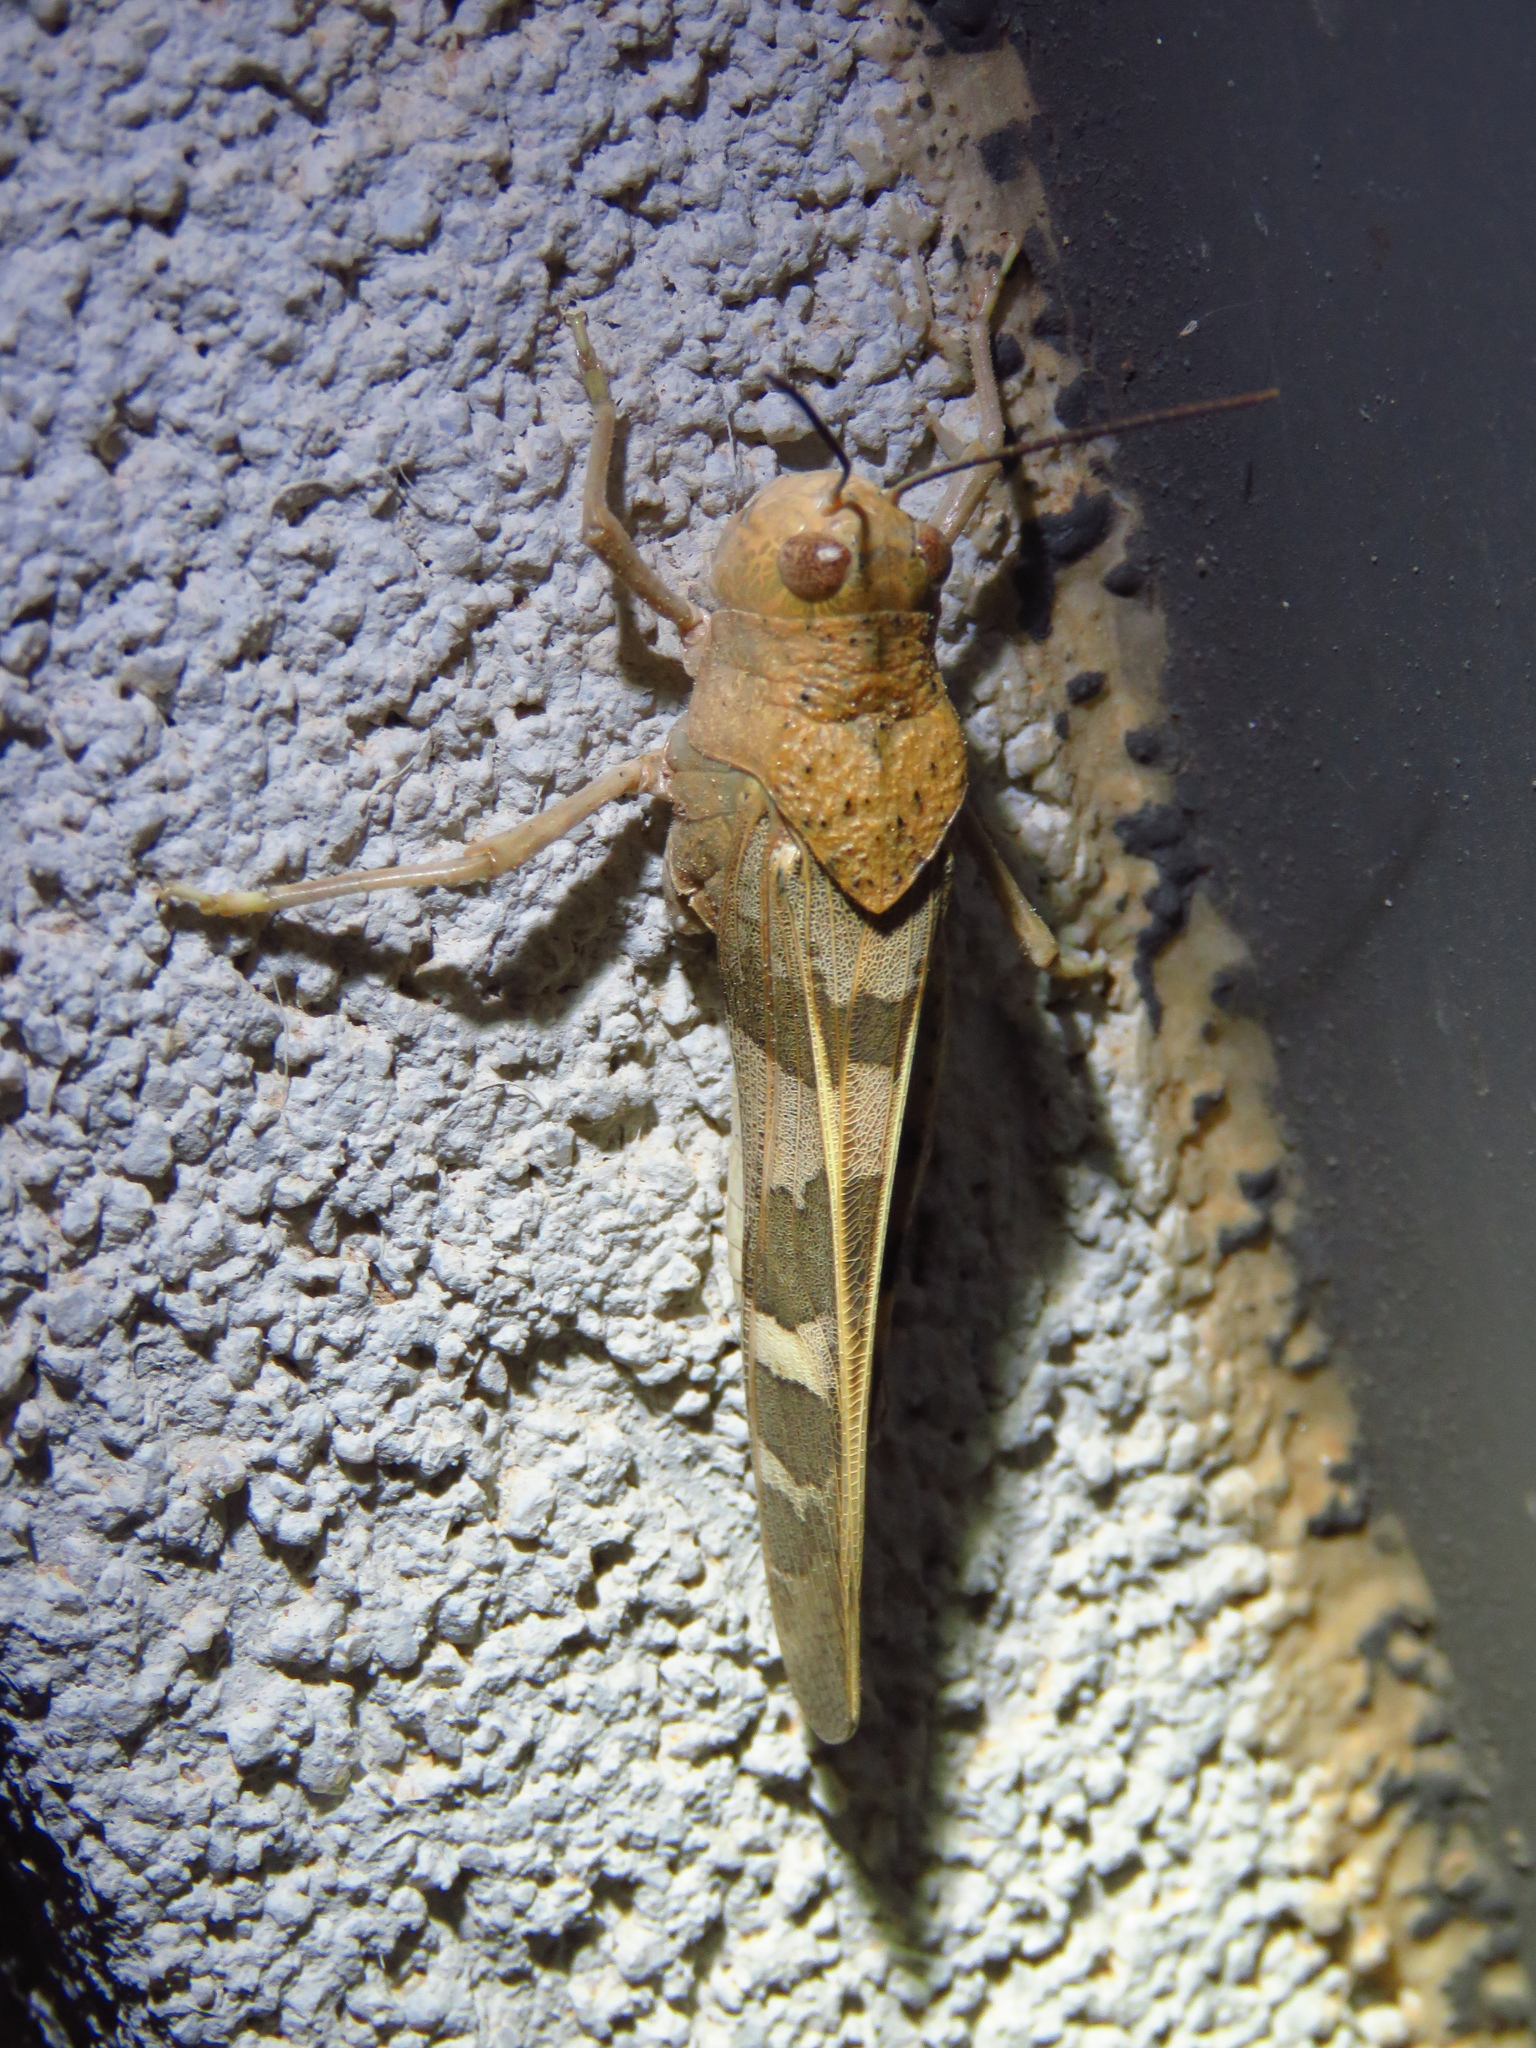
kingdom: Animalia
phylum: Arthropoda
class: Insecta
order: Orthoptera
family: Acrididae
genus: Leprus
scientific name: Leprus wheelerii
